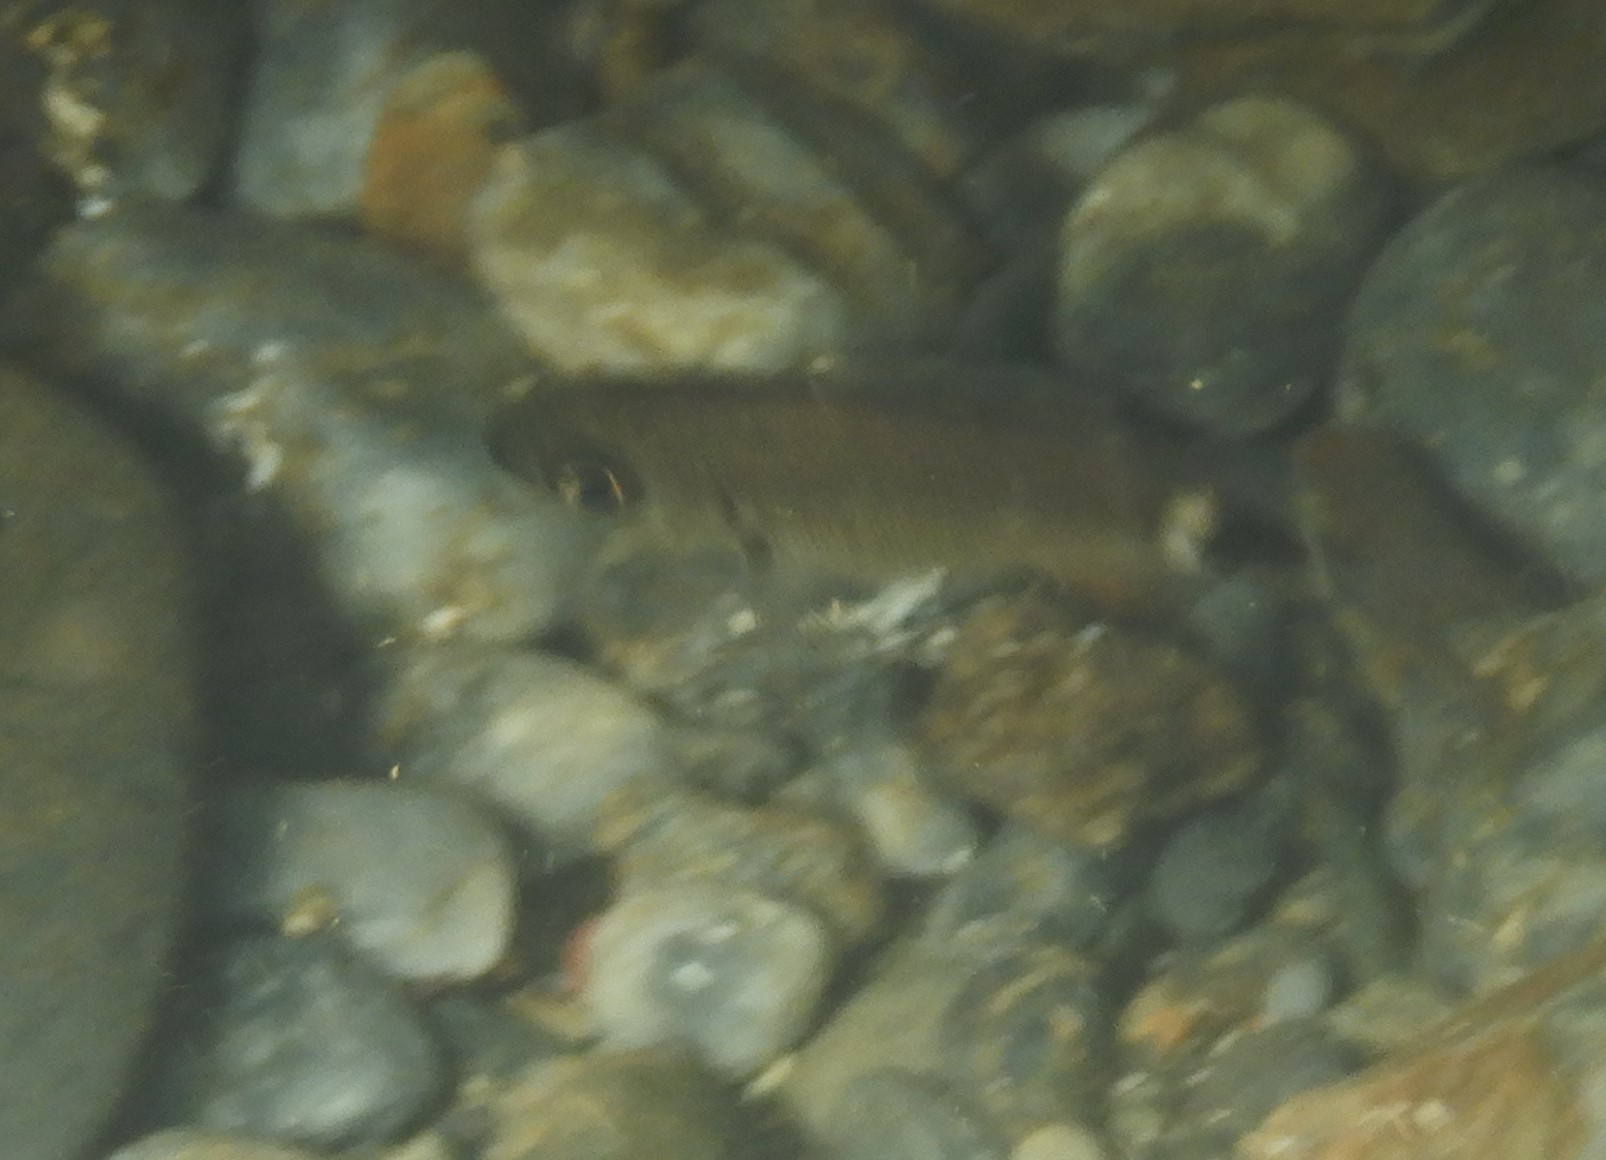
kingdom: Animalia
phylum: Chordata
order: Perciformes
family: Sparidae
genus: Oblada
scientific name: Oblada melanura
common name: Saddled seabream
